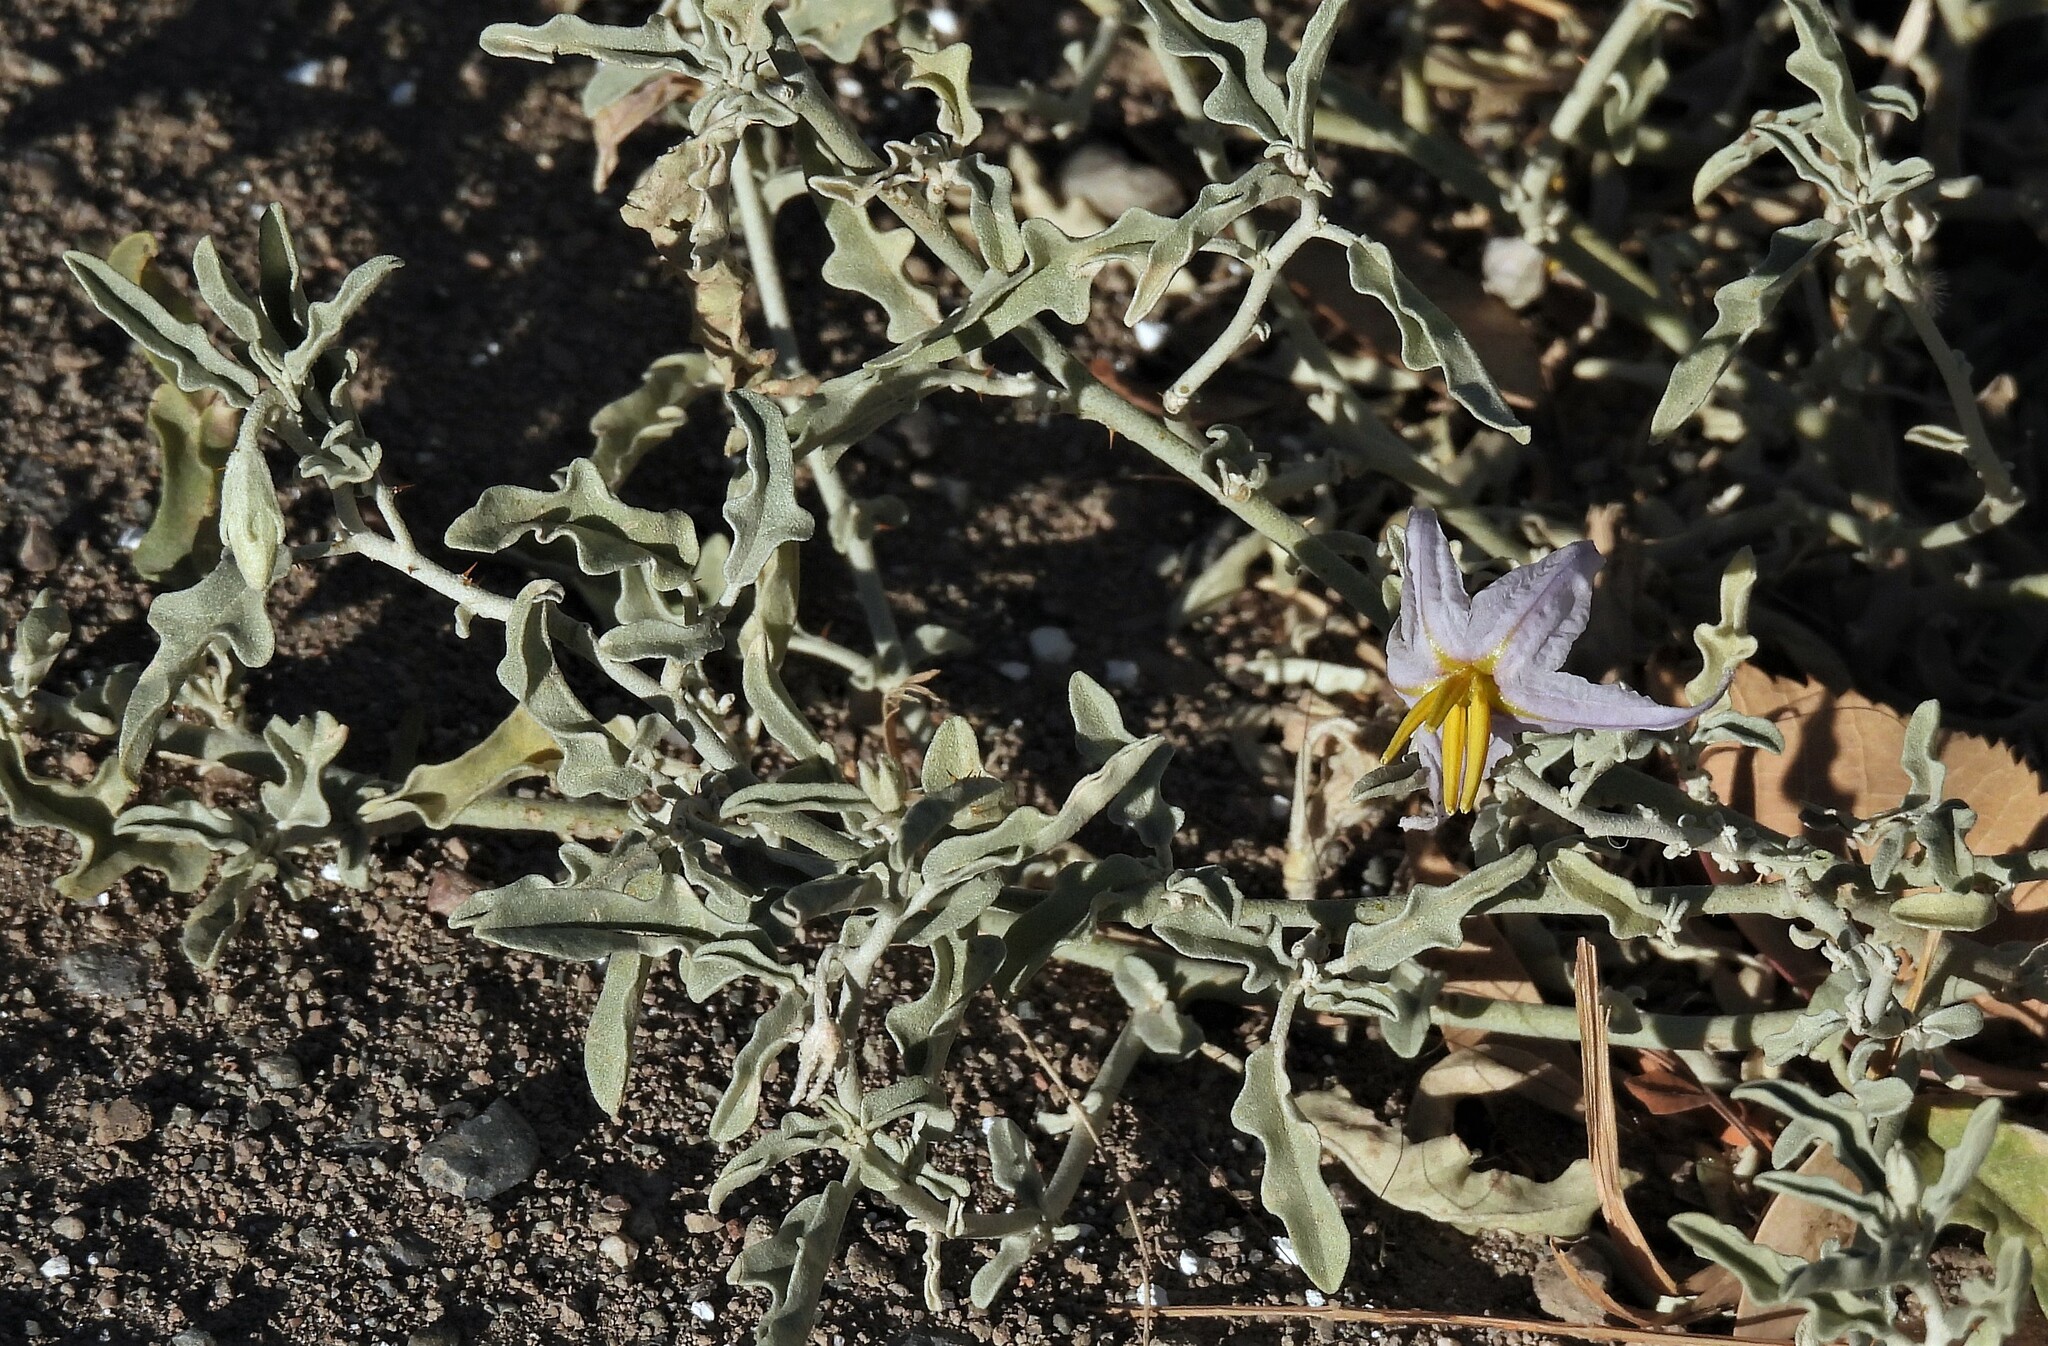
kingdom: Plantae
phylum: Tracheophyta
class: Magnoliopsida
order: Solanales
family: Solanaceae
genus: Solanum
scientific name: Solanum elaeagnifolium
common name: Silverleaf nightshade
